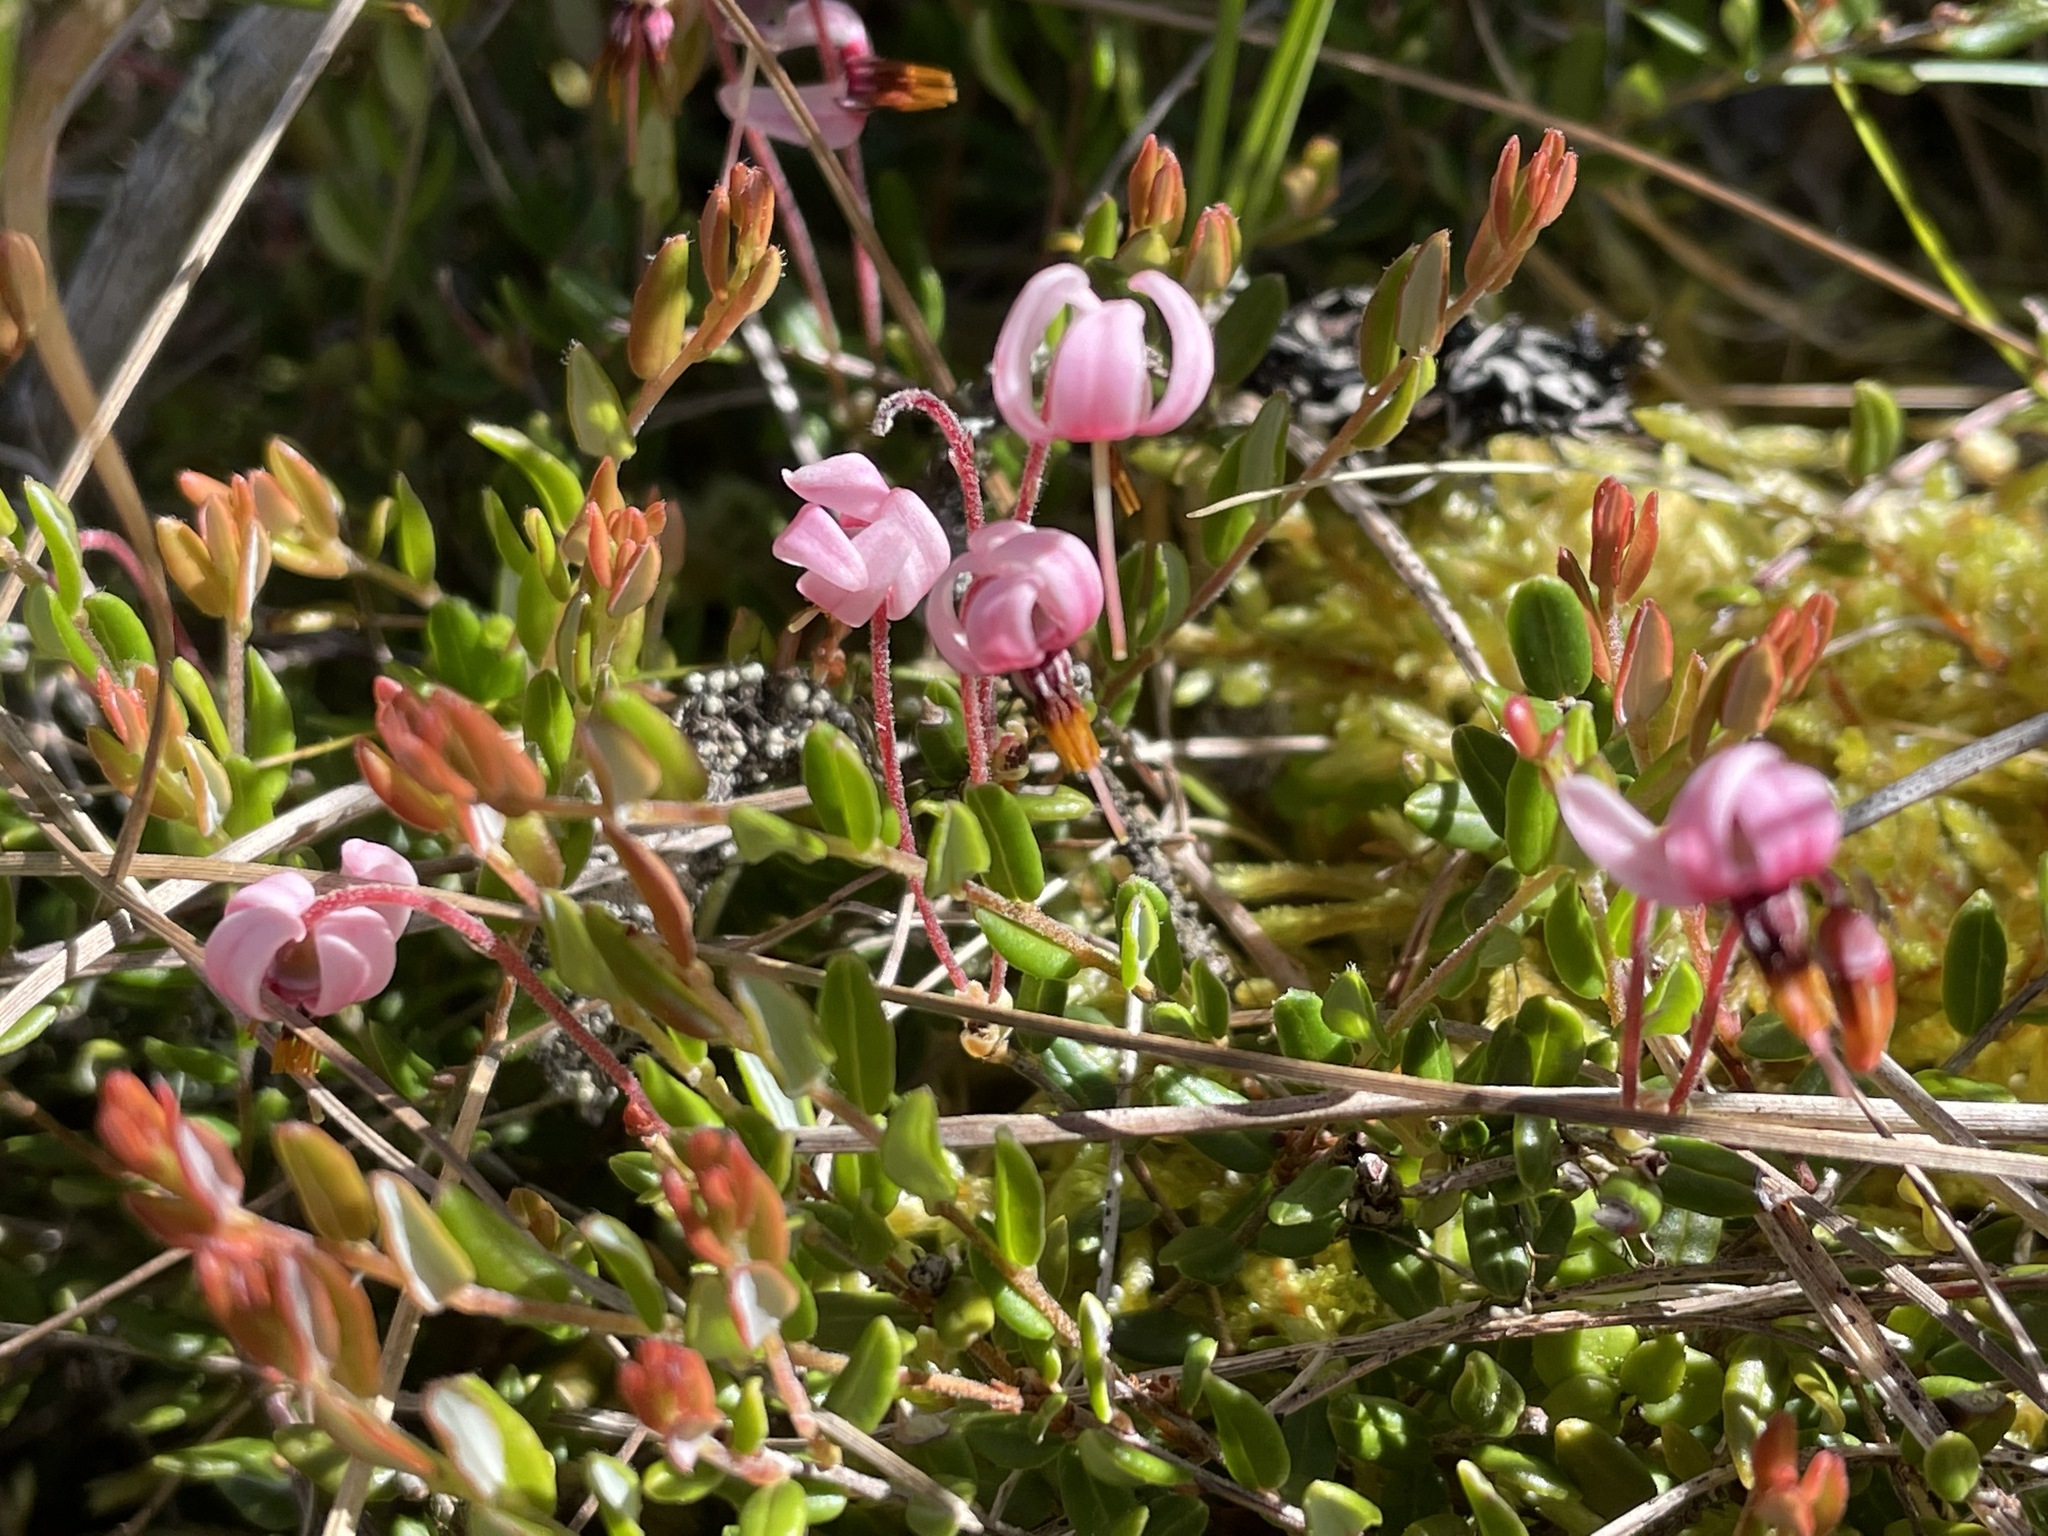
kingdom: Plantae
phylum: Tracheophyta
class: Magnoliopsida
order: Ericales
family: Ericaceae
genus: Vaccinium
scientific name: Vaccinium oxycoccos
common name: Cranberry
